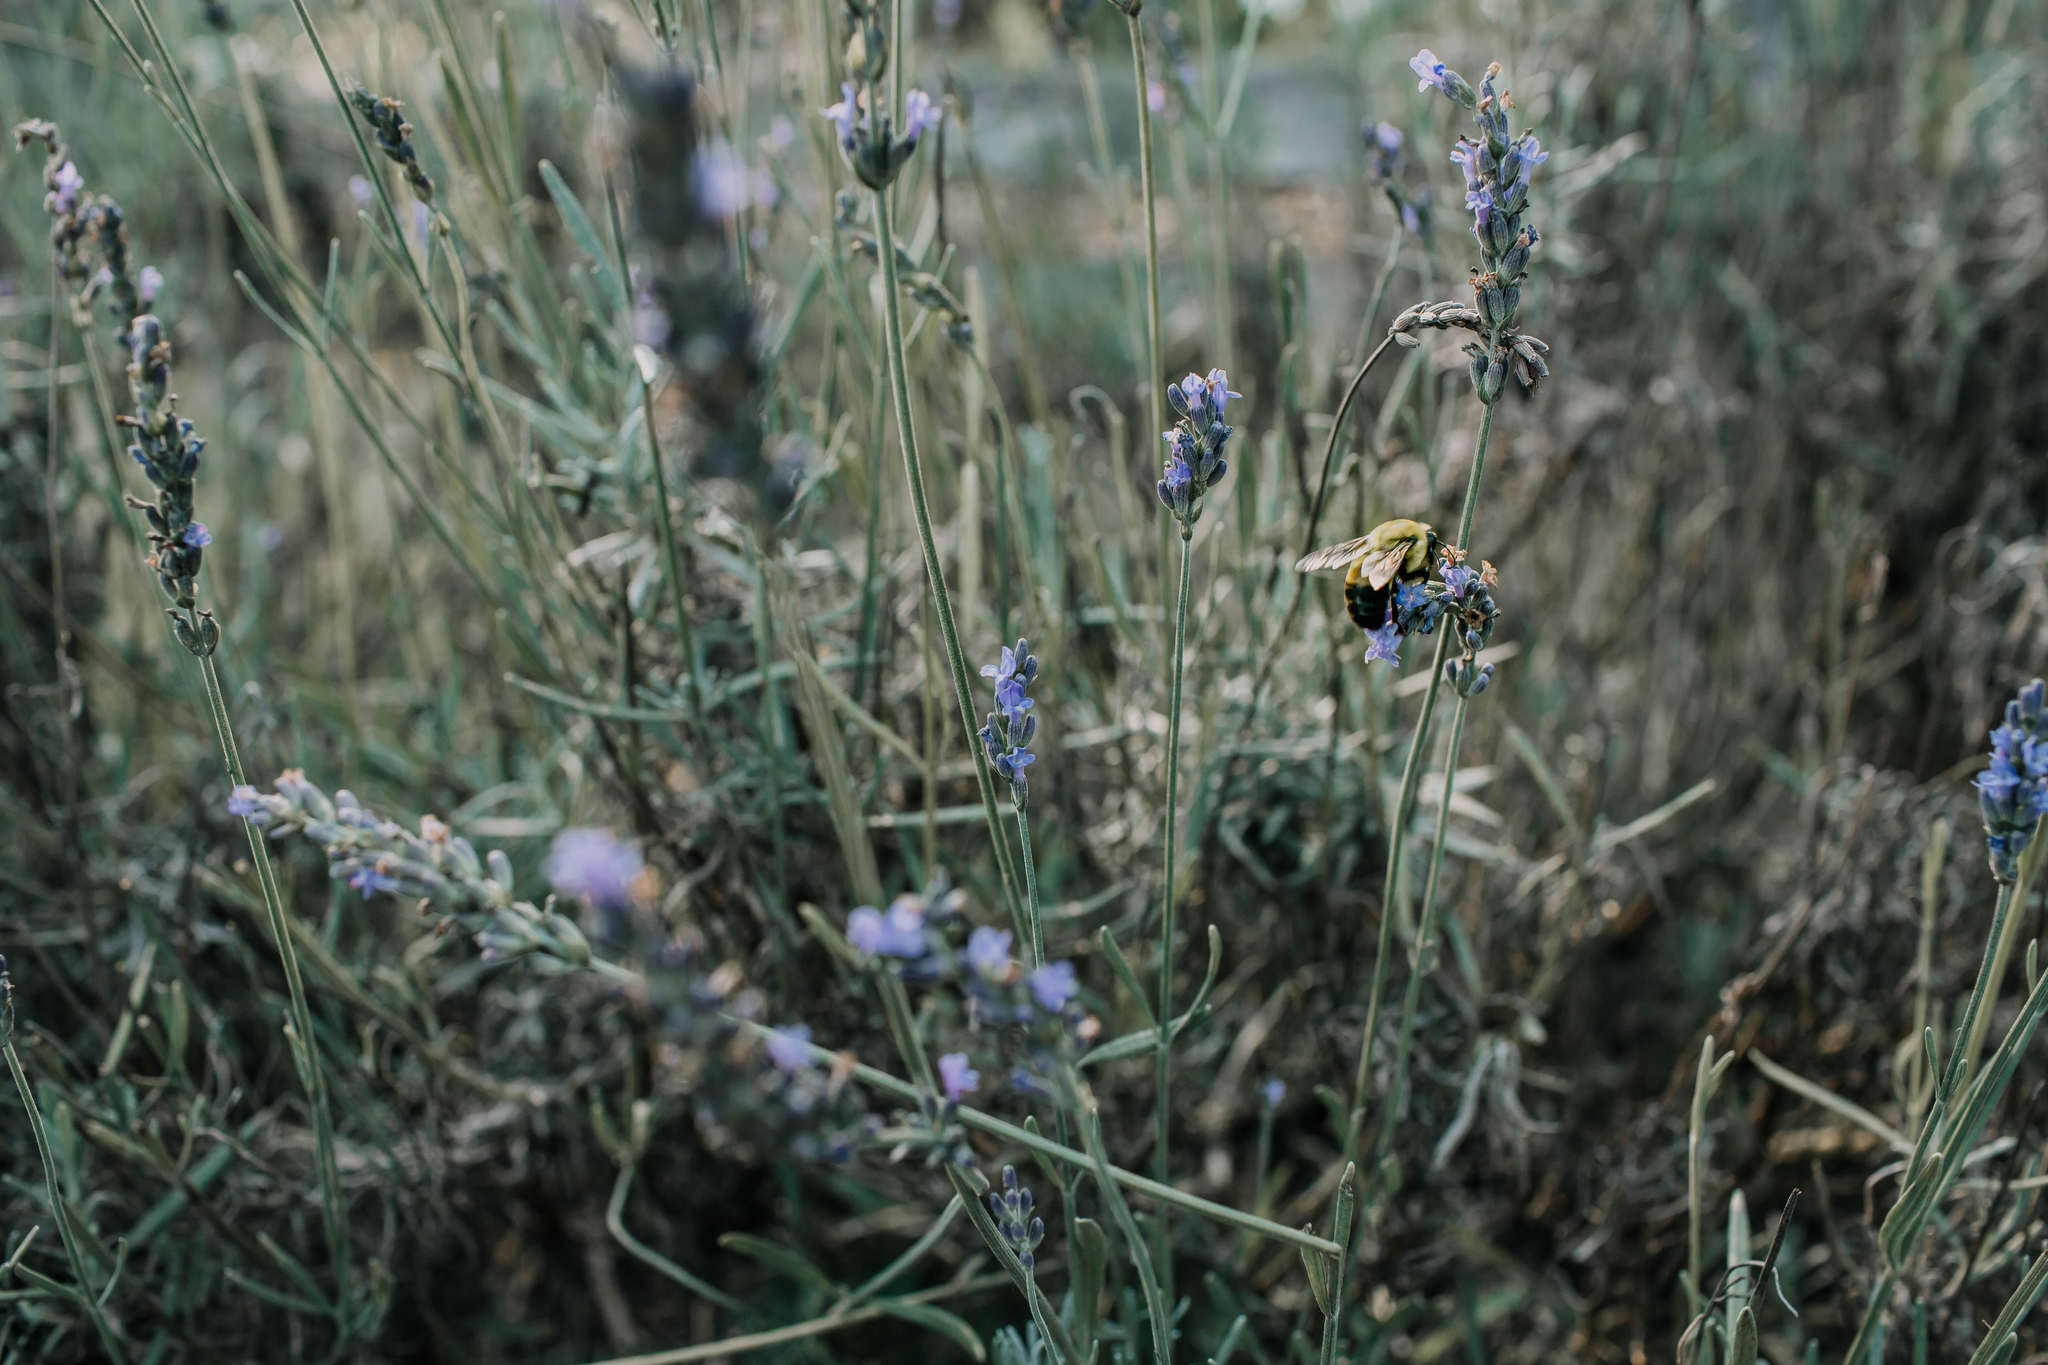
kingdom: Animalia
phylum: Arthropoda
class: Insecta
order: Hymenoptera
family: Apidae
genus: Bombus
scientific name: Bombus griseocollis
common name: Brown-belted bumble bee
